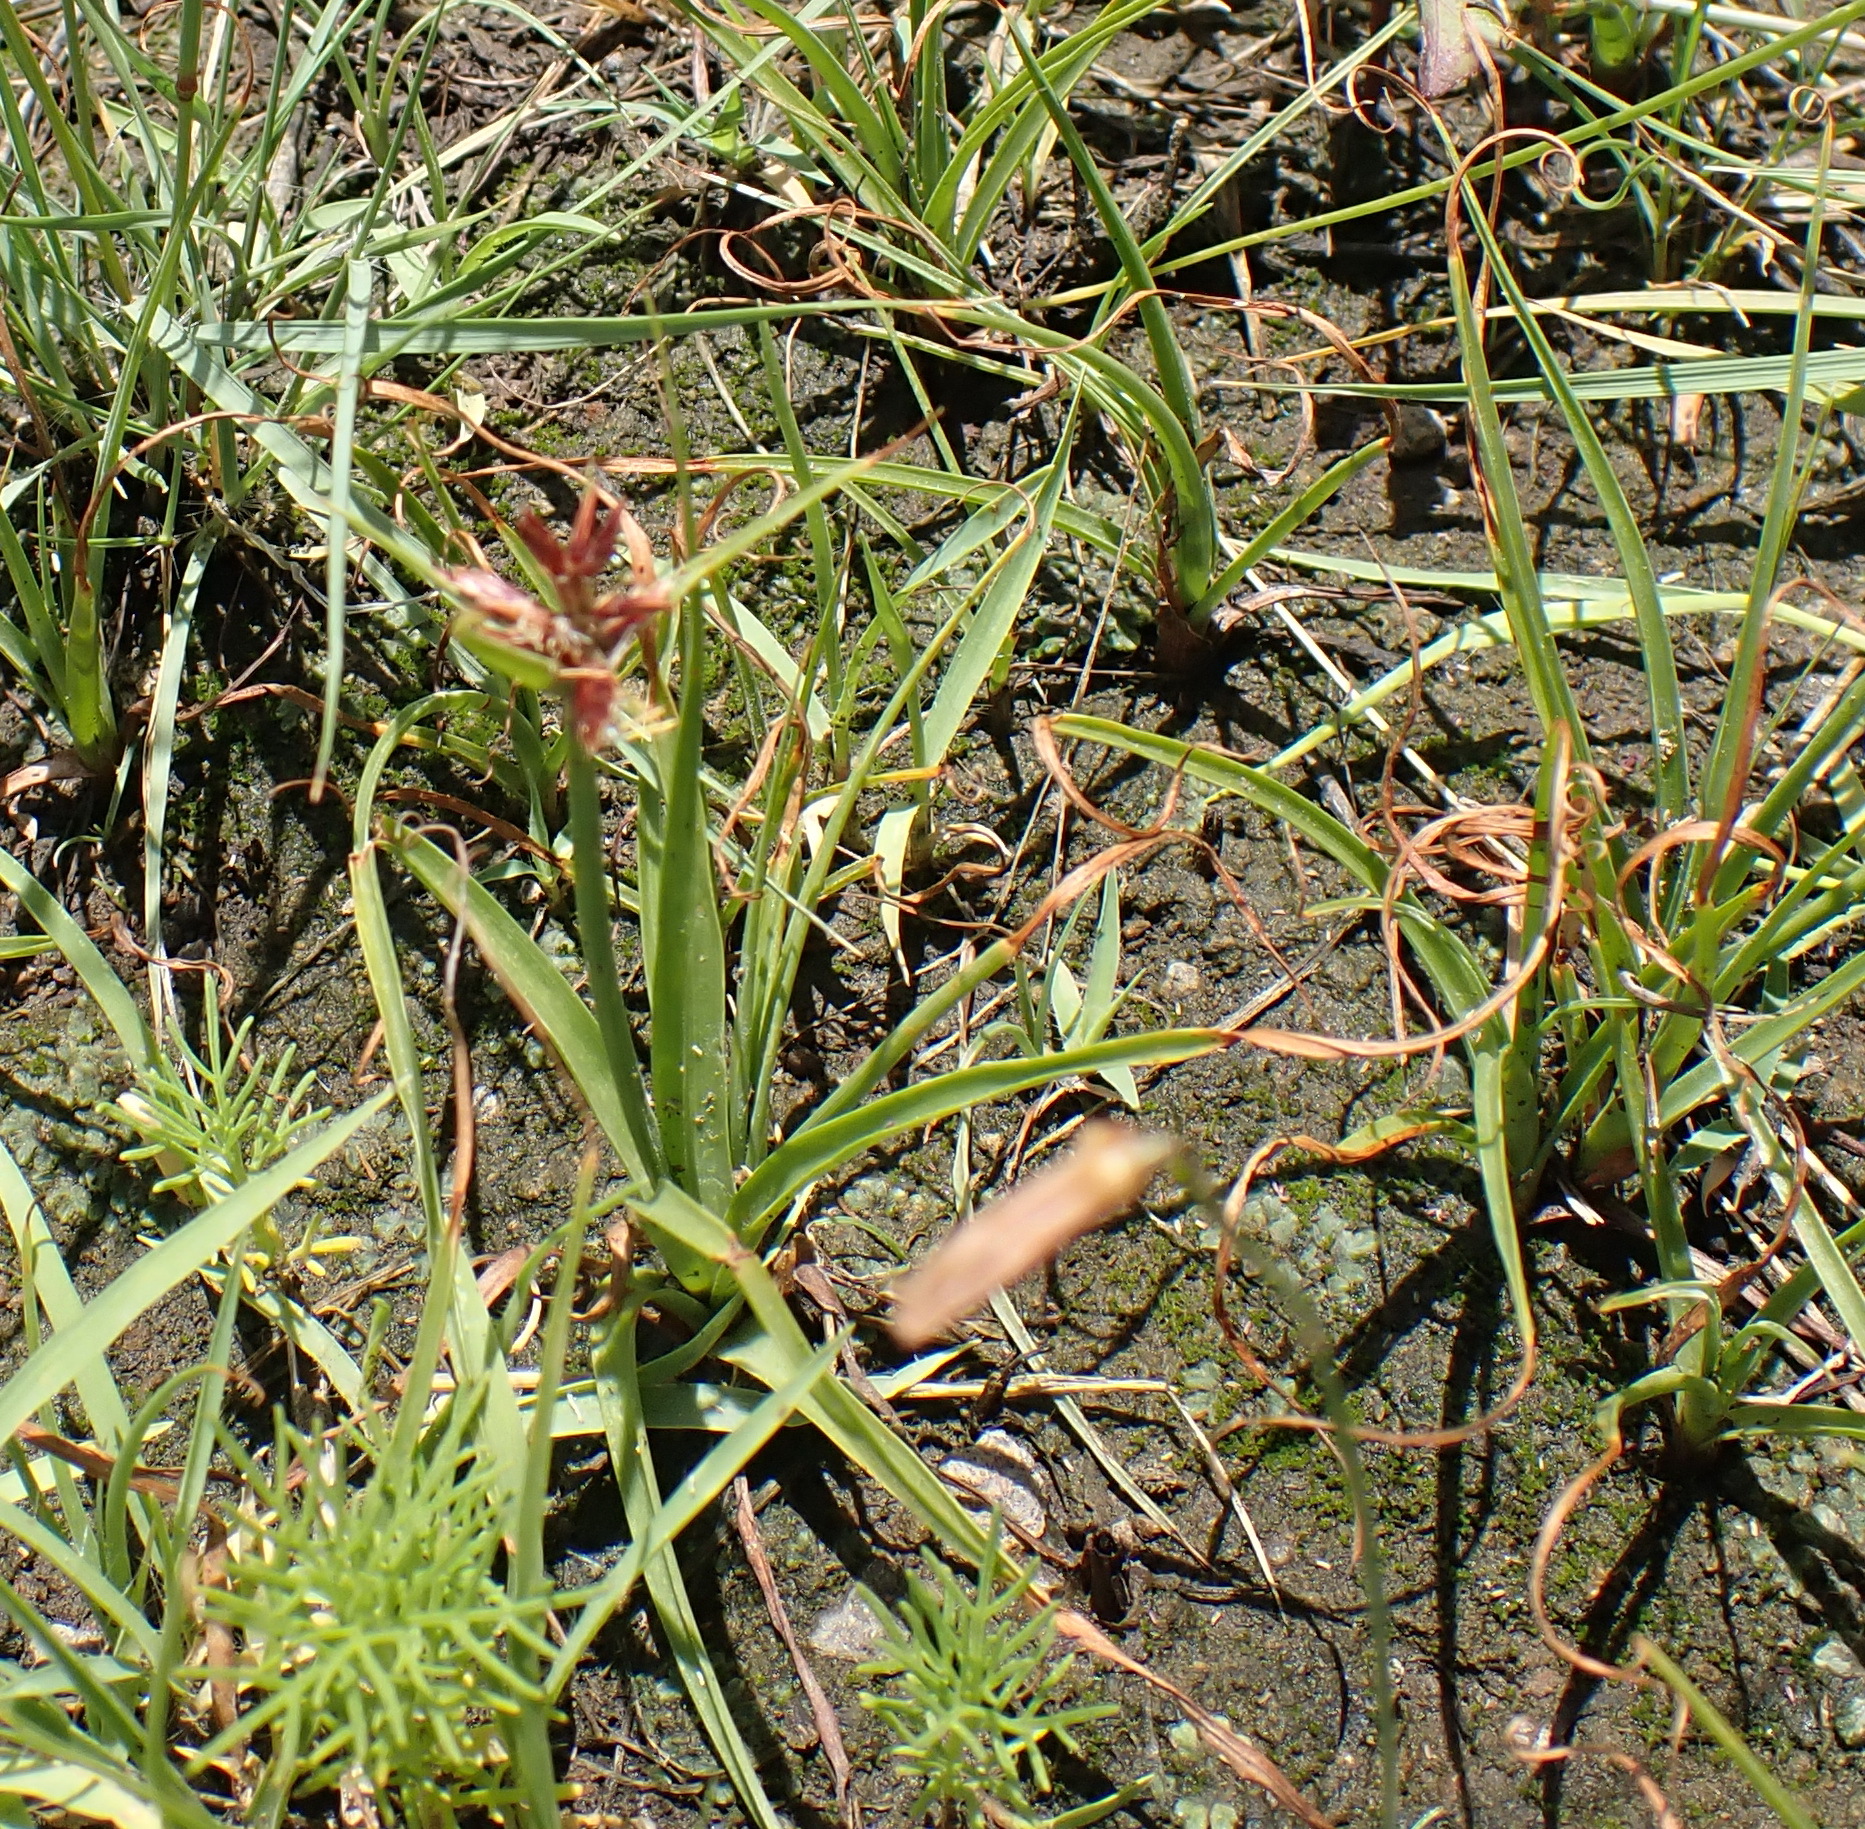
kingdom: Plantae
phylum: Tracheophyta
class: Liliopsida
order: Poales
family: Cyperaceae
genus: Cyperus
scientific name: Cyperus rupestris
